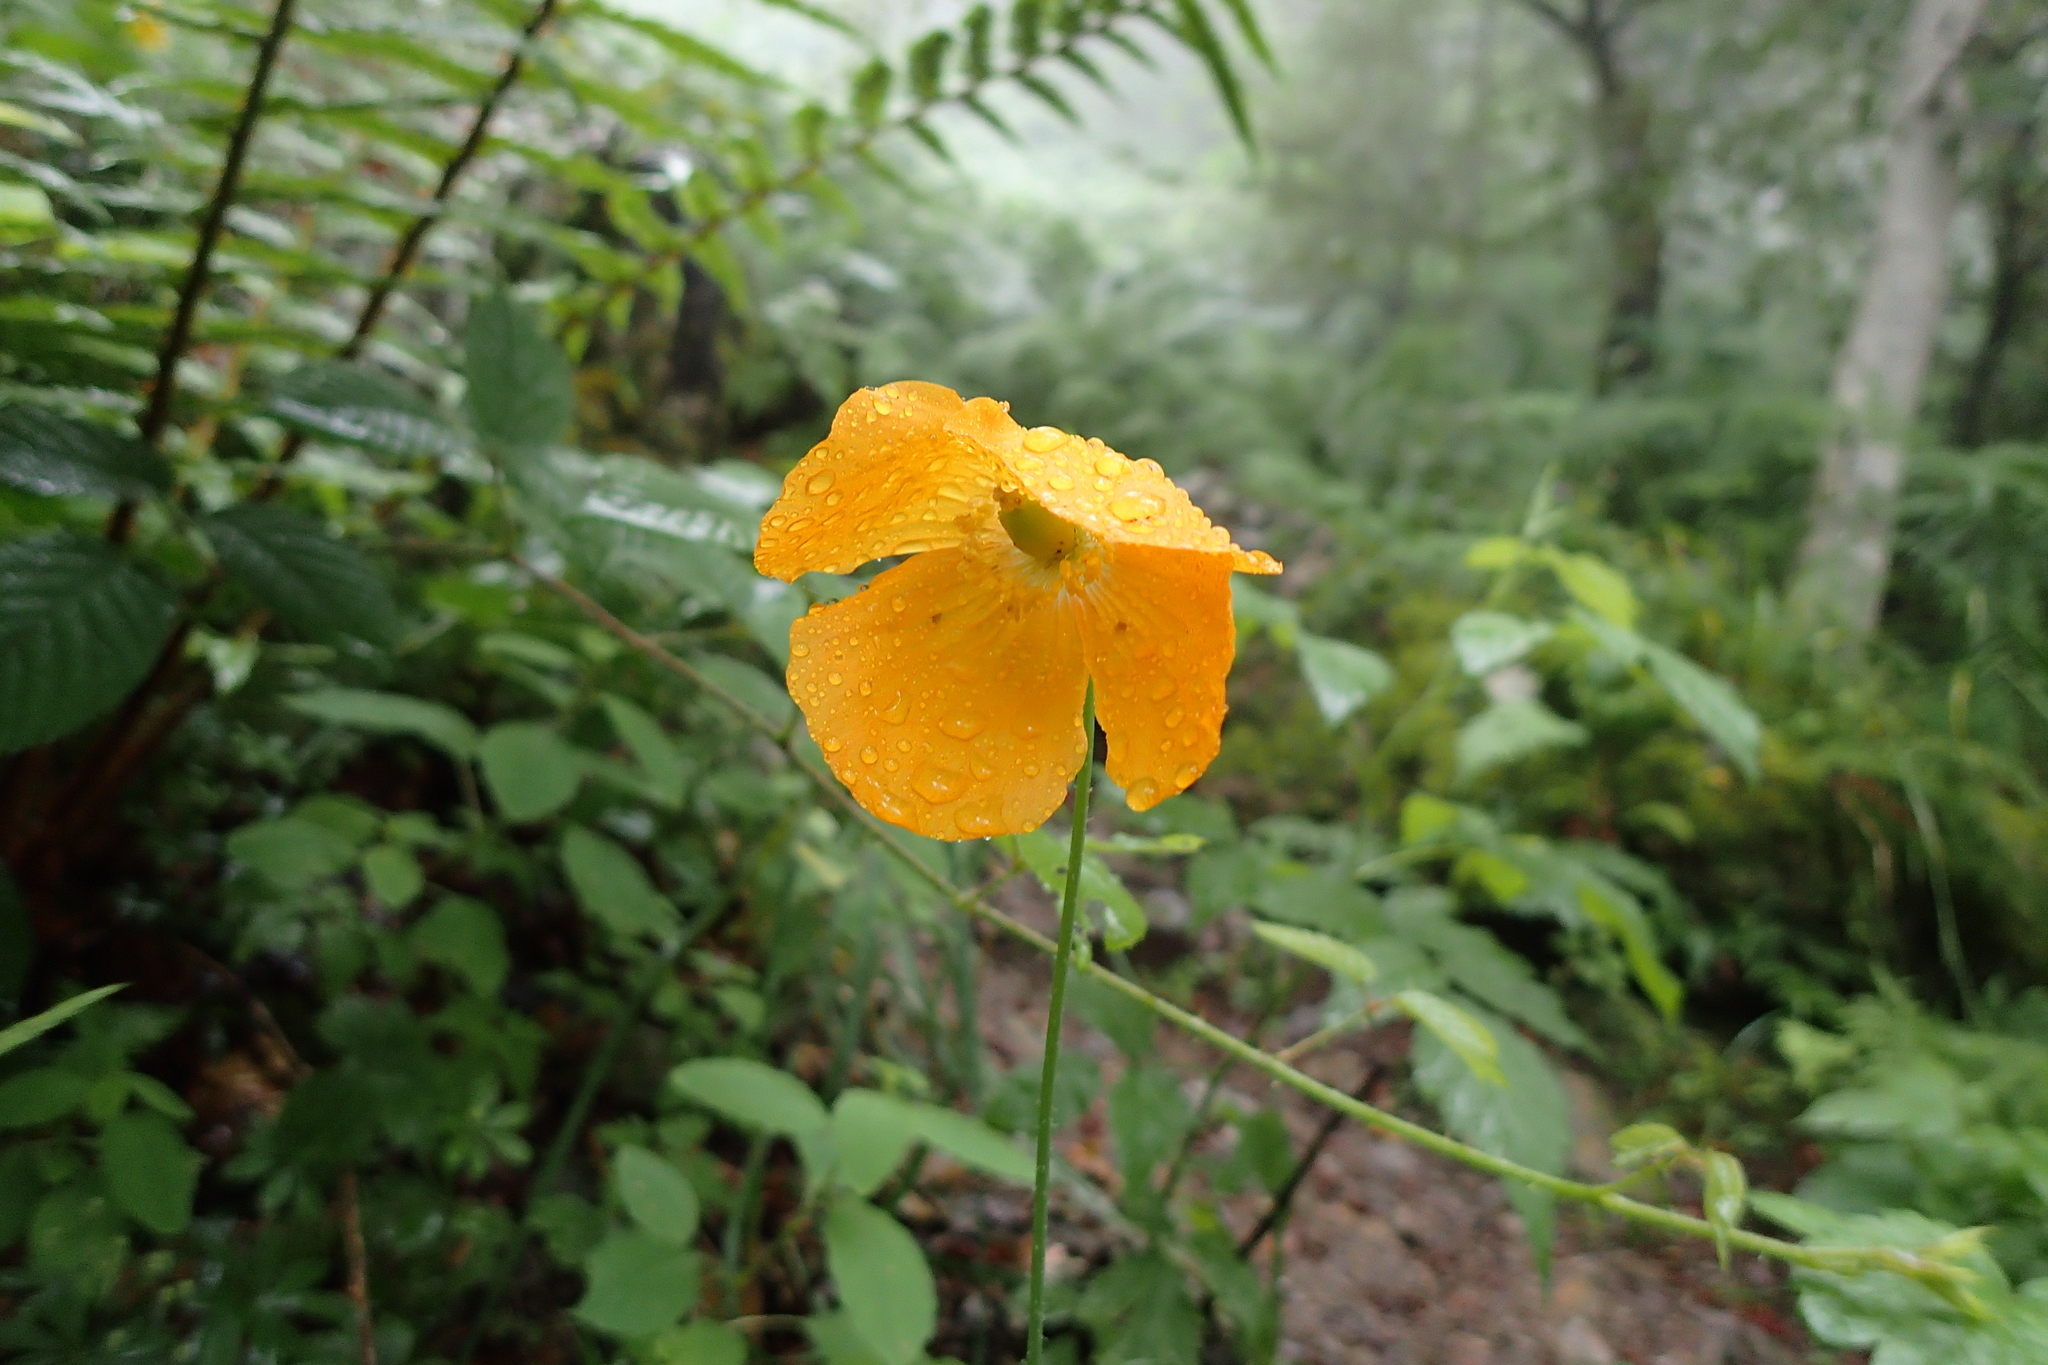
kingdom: Plantae
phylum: Tracheophyta
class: Magnoliopsida
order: Ranunculales
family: Papaveraceae
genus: Papaver
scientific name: Papaver cambricum
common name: Poppy
